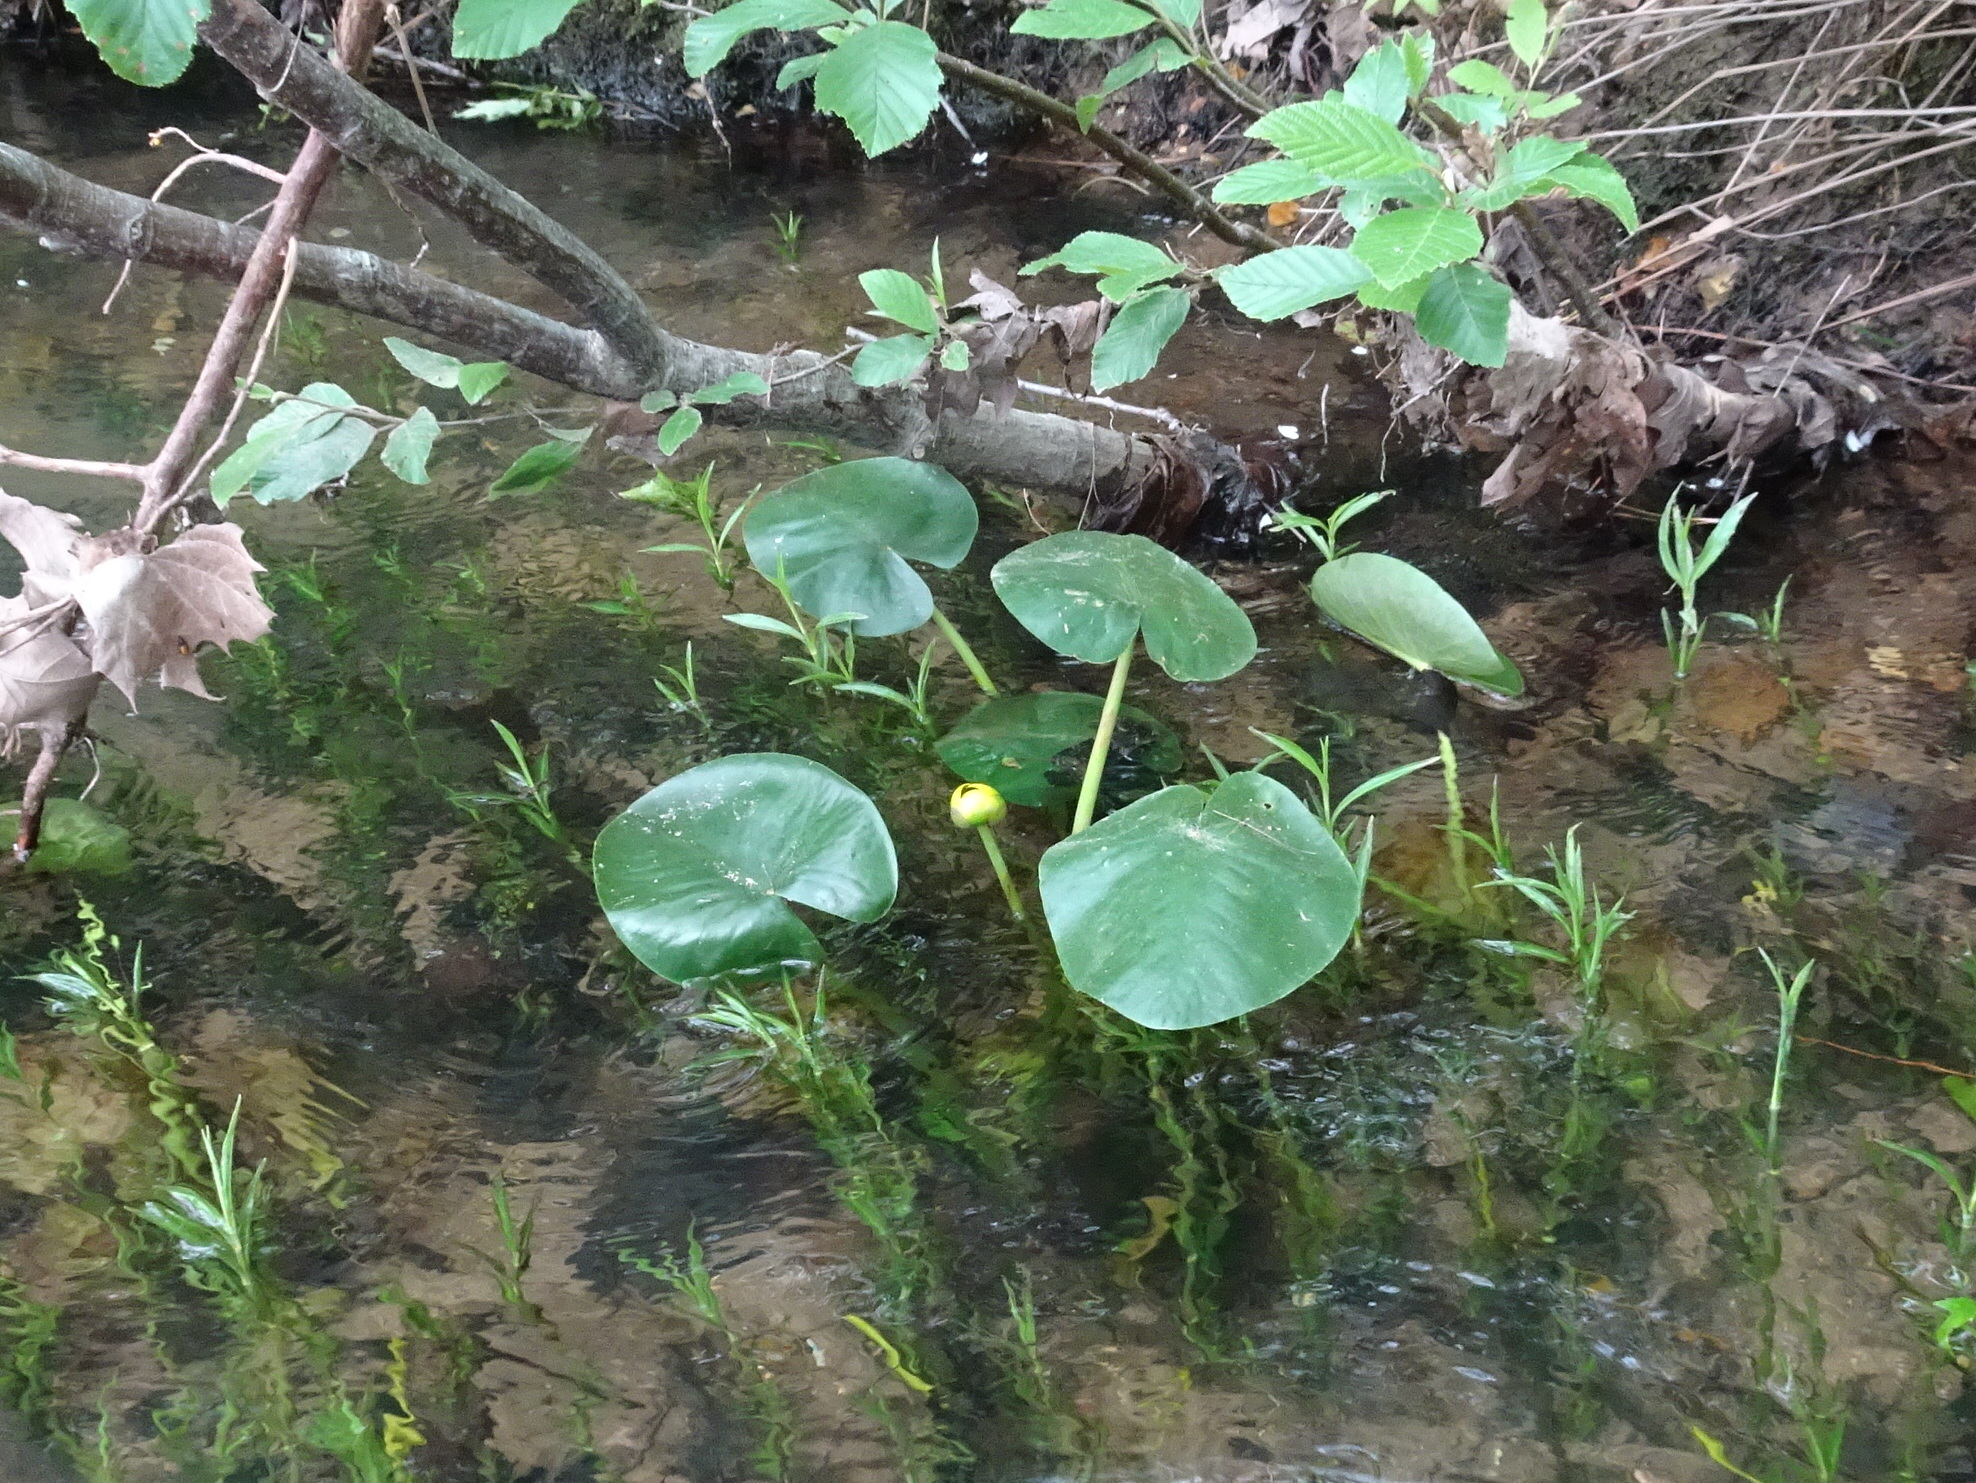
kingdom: Plantae
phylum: Tracheophyta
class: Magnoliopsida
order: Nymphaeales
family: Nymphaeaceae
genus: Nuphar
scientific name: Nuphar advena
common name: Spatter-dock
